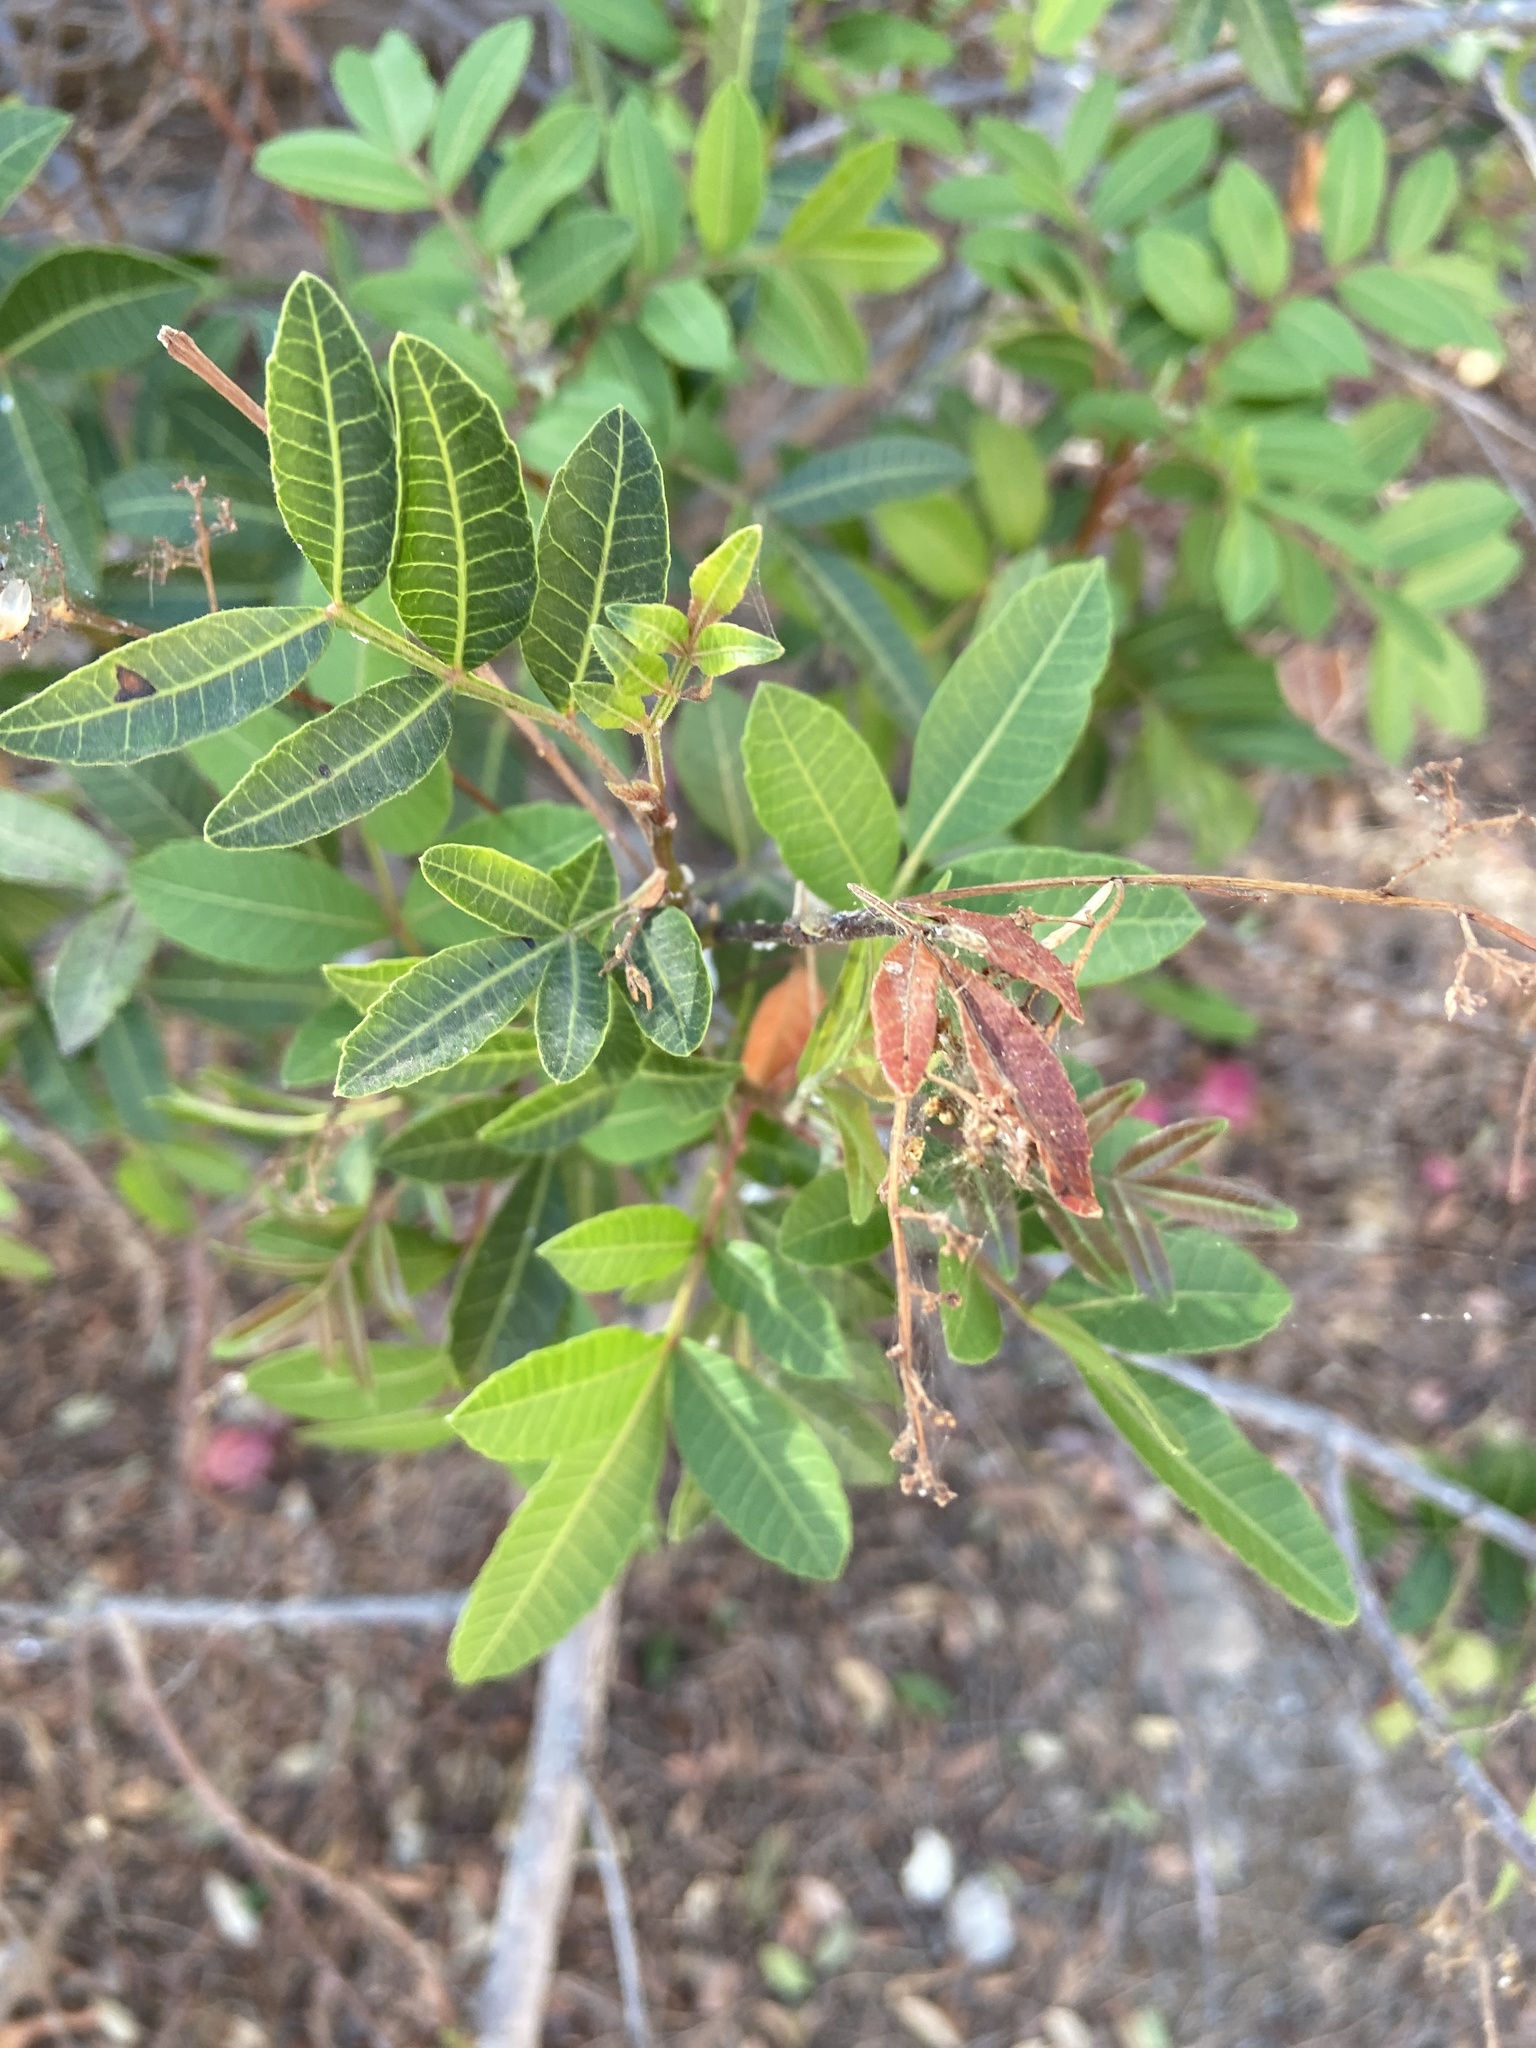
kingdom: Plantae
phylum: Tracheophyta
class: Magnoliopsida
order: Sapindales
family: Anacardiaceae
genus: Schinus
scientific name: Schinus terebinthifolia
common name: Brazilian peppertree
